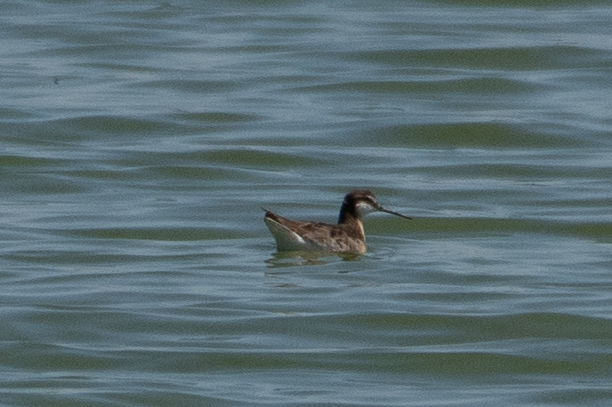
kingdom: Animalia
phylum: Chordata
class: Aves
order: Charadriiformes
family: Scolopacidae
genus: Phalaropus
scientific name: Phalaropus tricolor
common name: Wilson's phalarope
